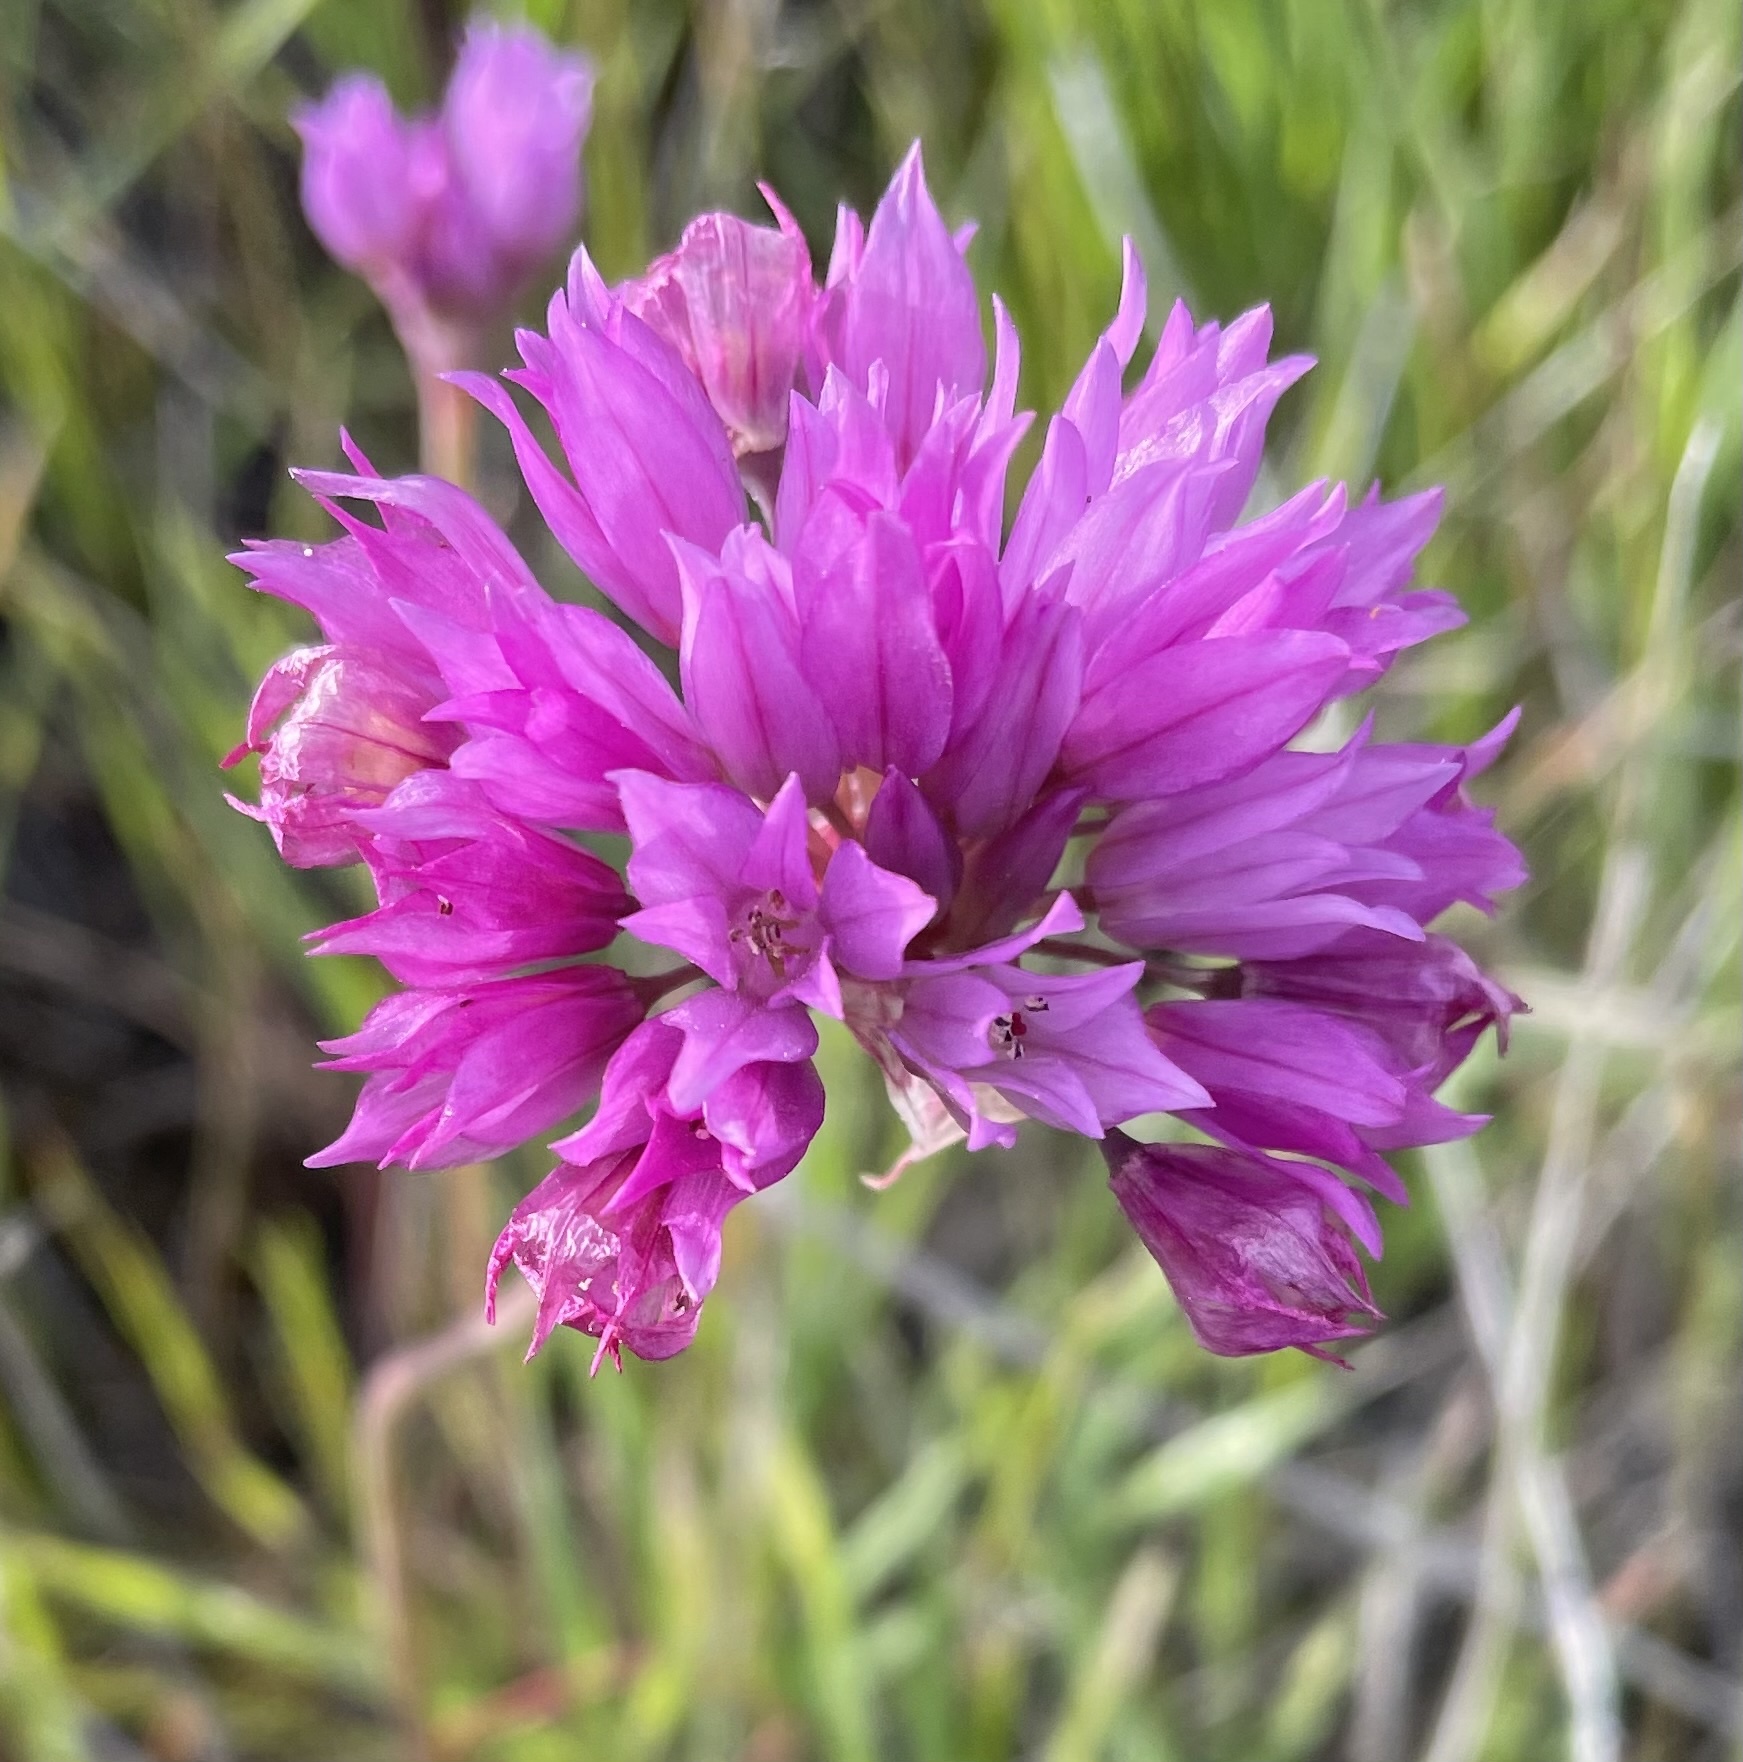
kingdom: Plantae
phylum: Tracheophyta
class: Liliopsida
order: Asparagales
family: Amaryllidaceae
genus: Allium
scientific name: Allium serra
